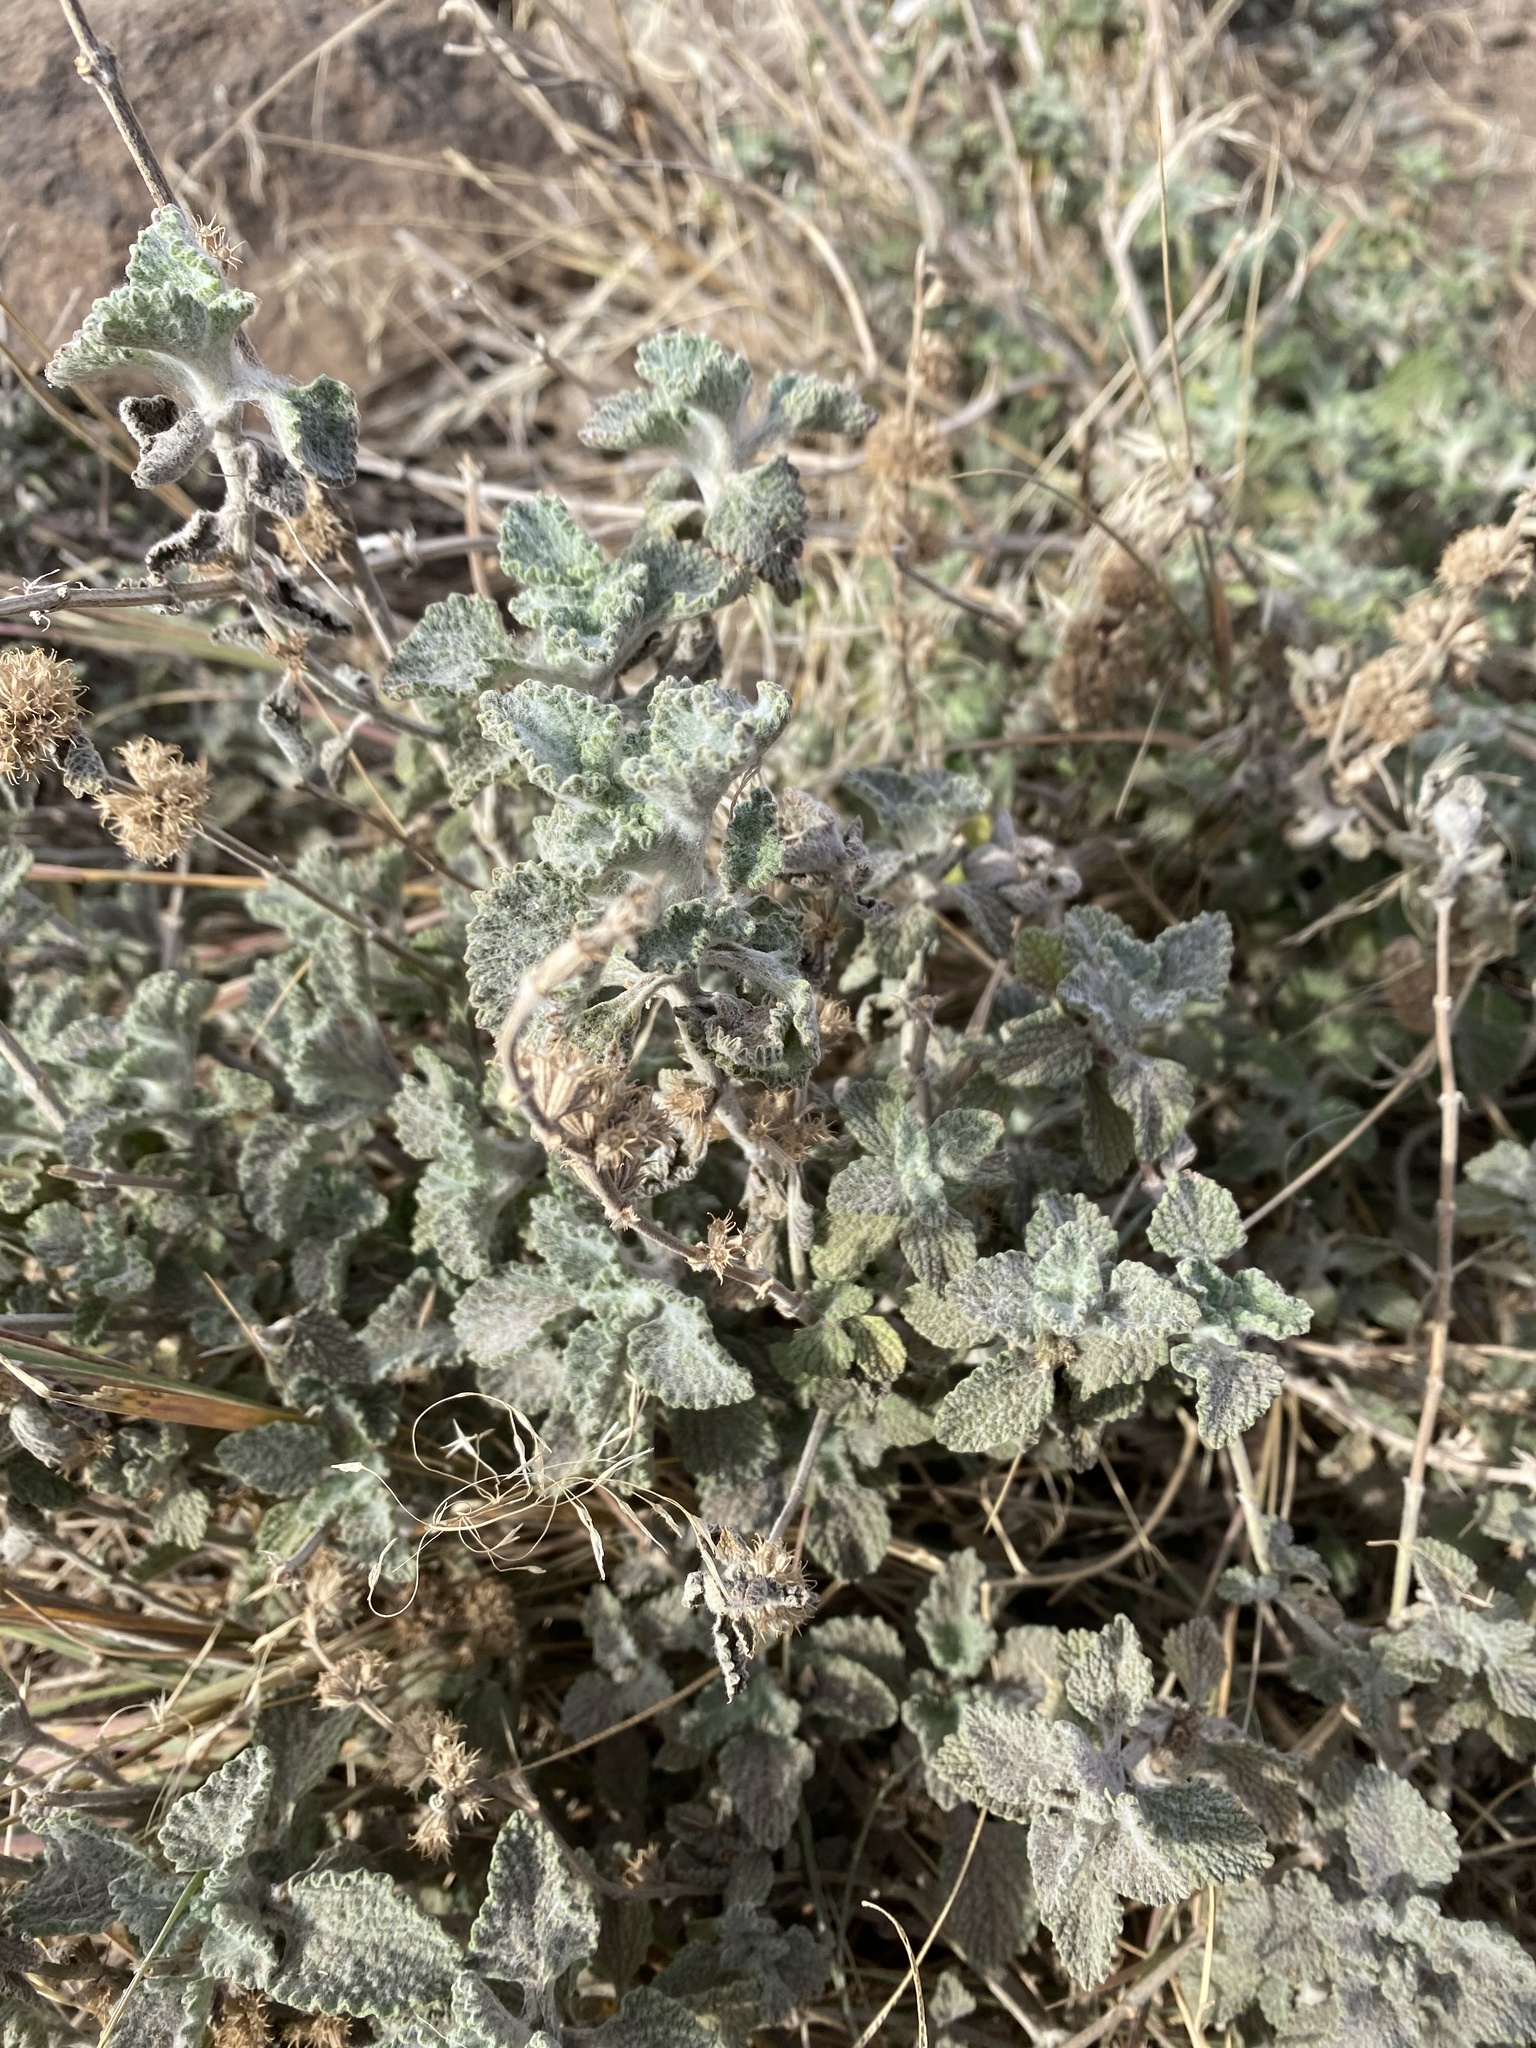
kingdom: Plantae
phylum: Tracheophyta
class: Magnoliopsida
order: Lamiales
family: Lamiaceae
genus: Marrubium
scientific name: Marrubium vulgare
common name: Horehound
